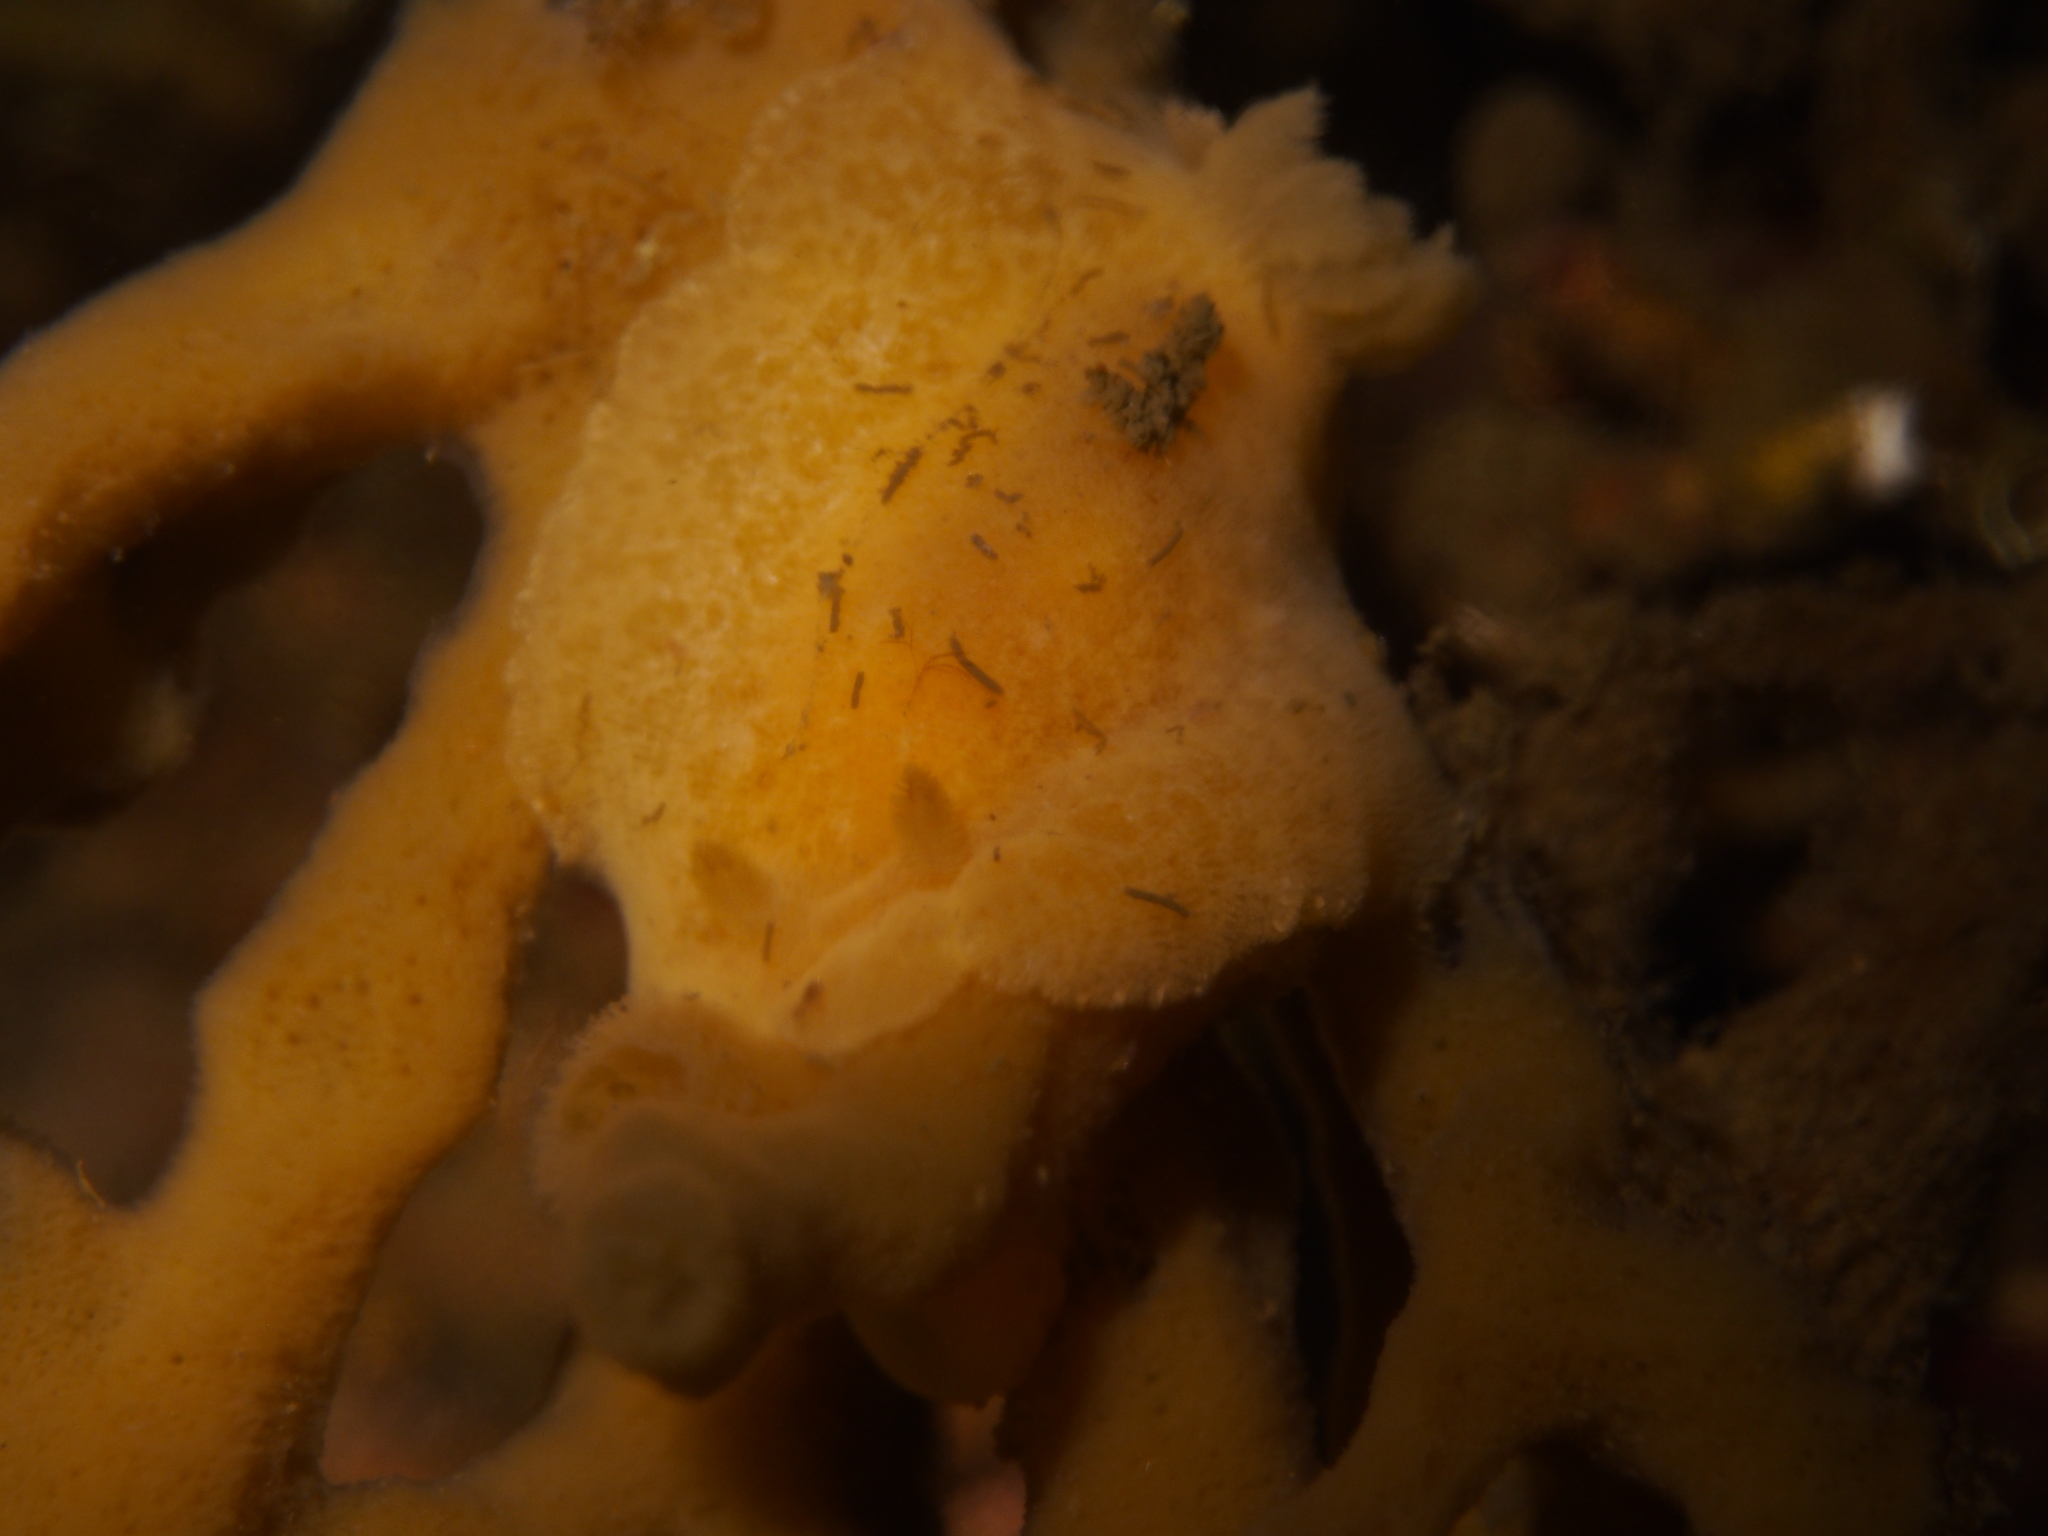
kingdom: Animalia
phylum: Mollusca
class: Gastropoda
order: Nudibranchia
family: Discodorididae
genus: Jorunna
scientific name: Jorunna tomentosa
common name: Grey sea slug
